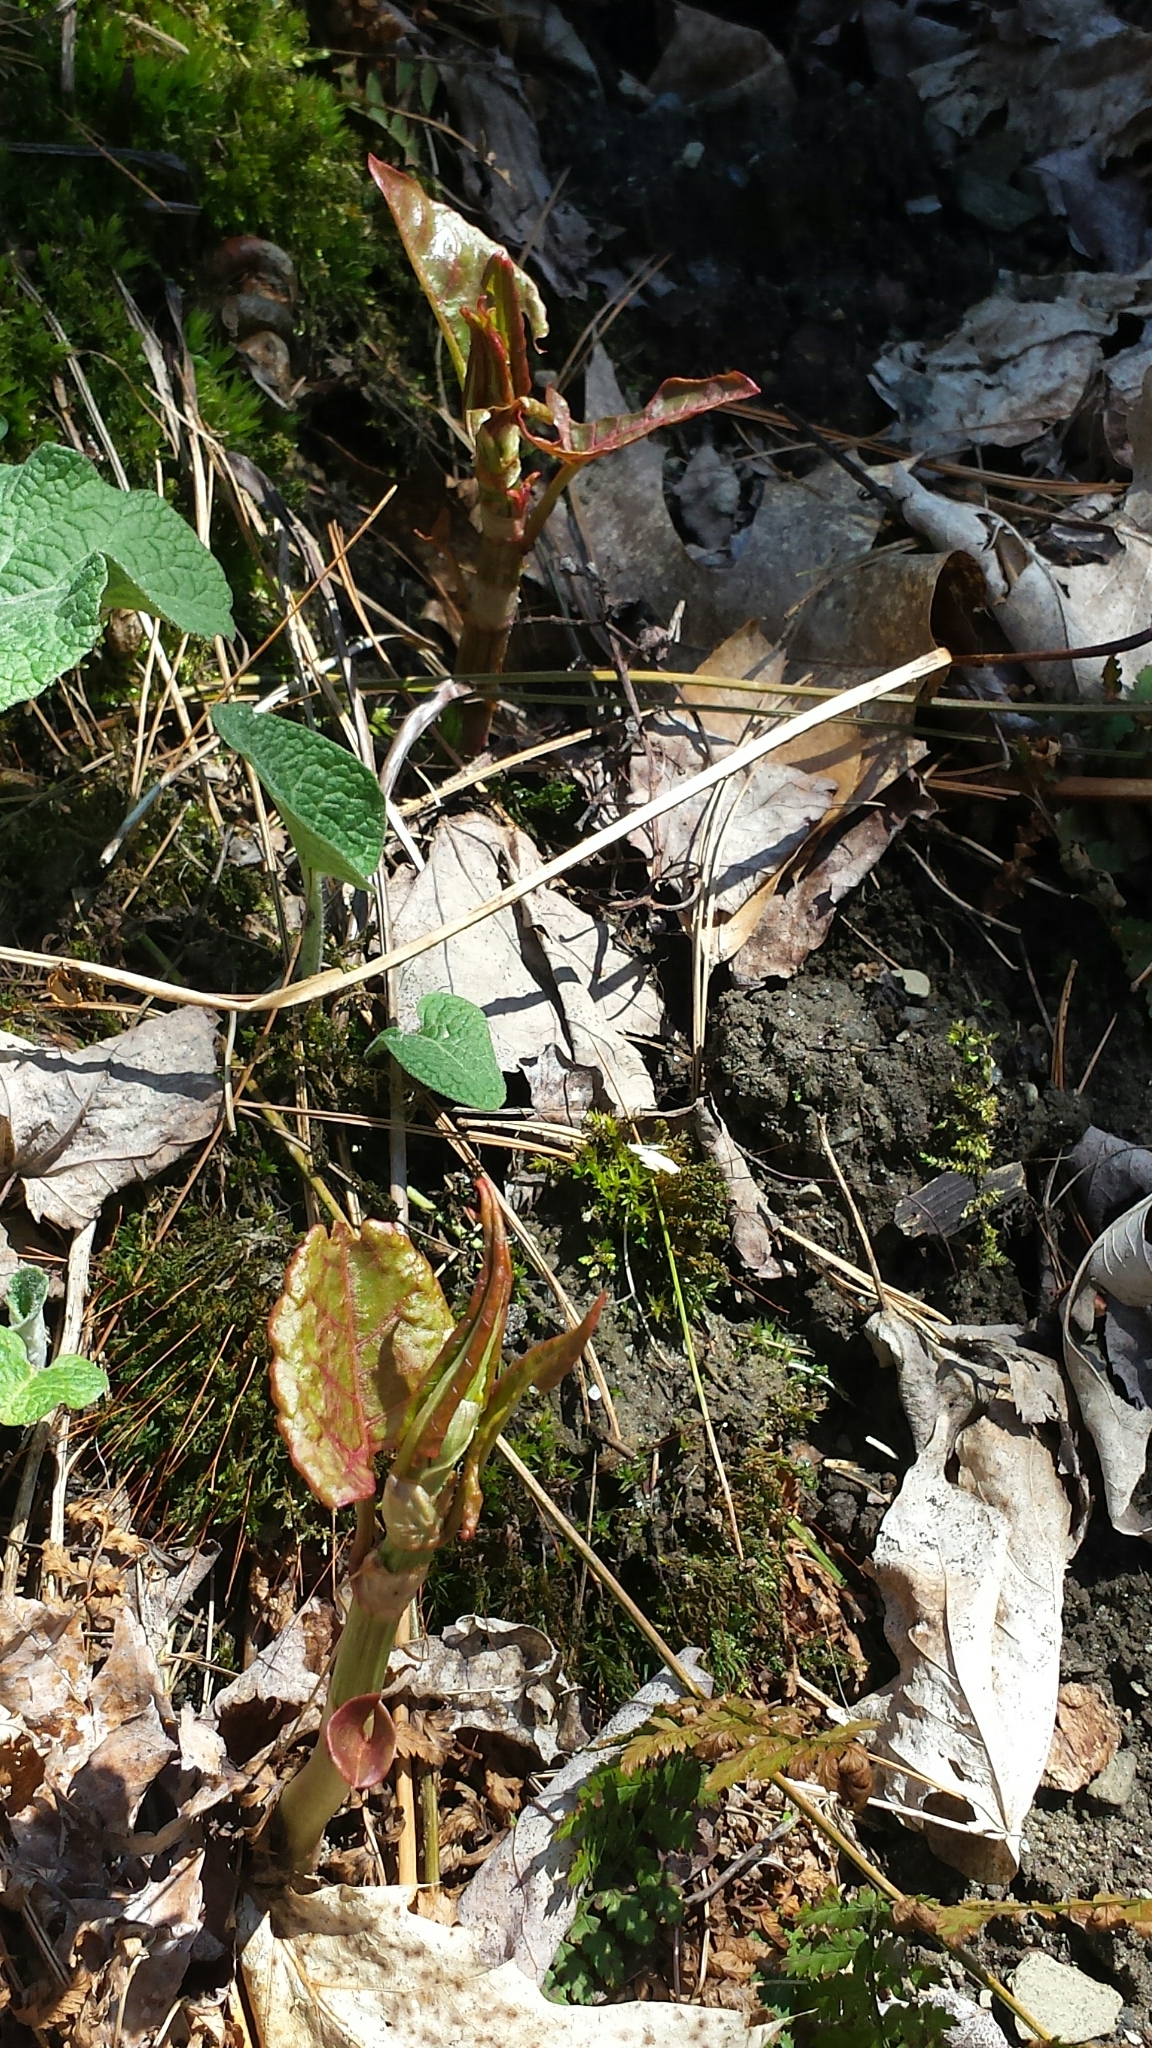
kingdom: Plantae
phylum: Tracheophyta
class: Magnoliopsida
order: Caryophyllales
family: Polygonaceae
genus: Reynoutria
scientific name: Reynoutria japonica
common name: Japanese knotweed
